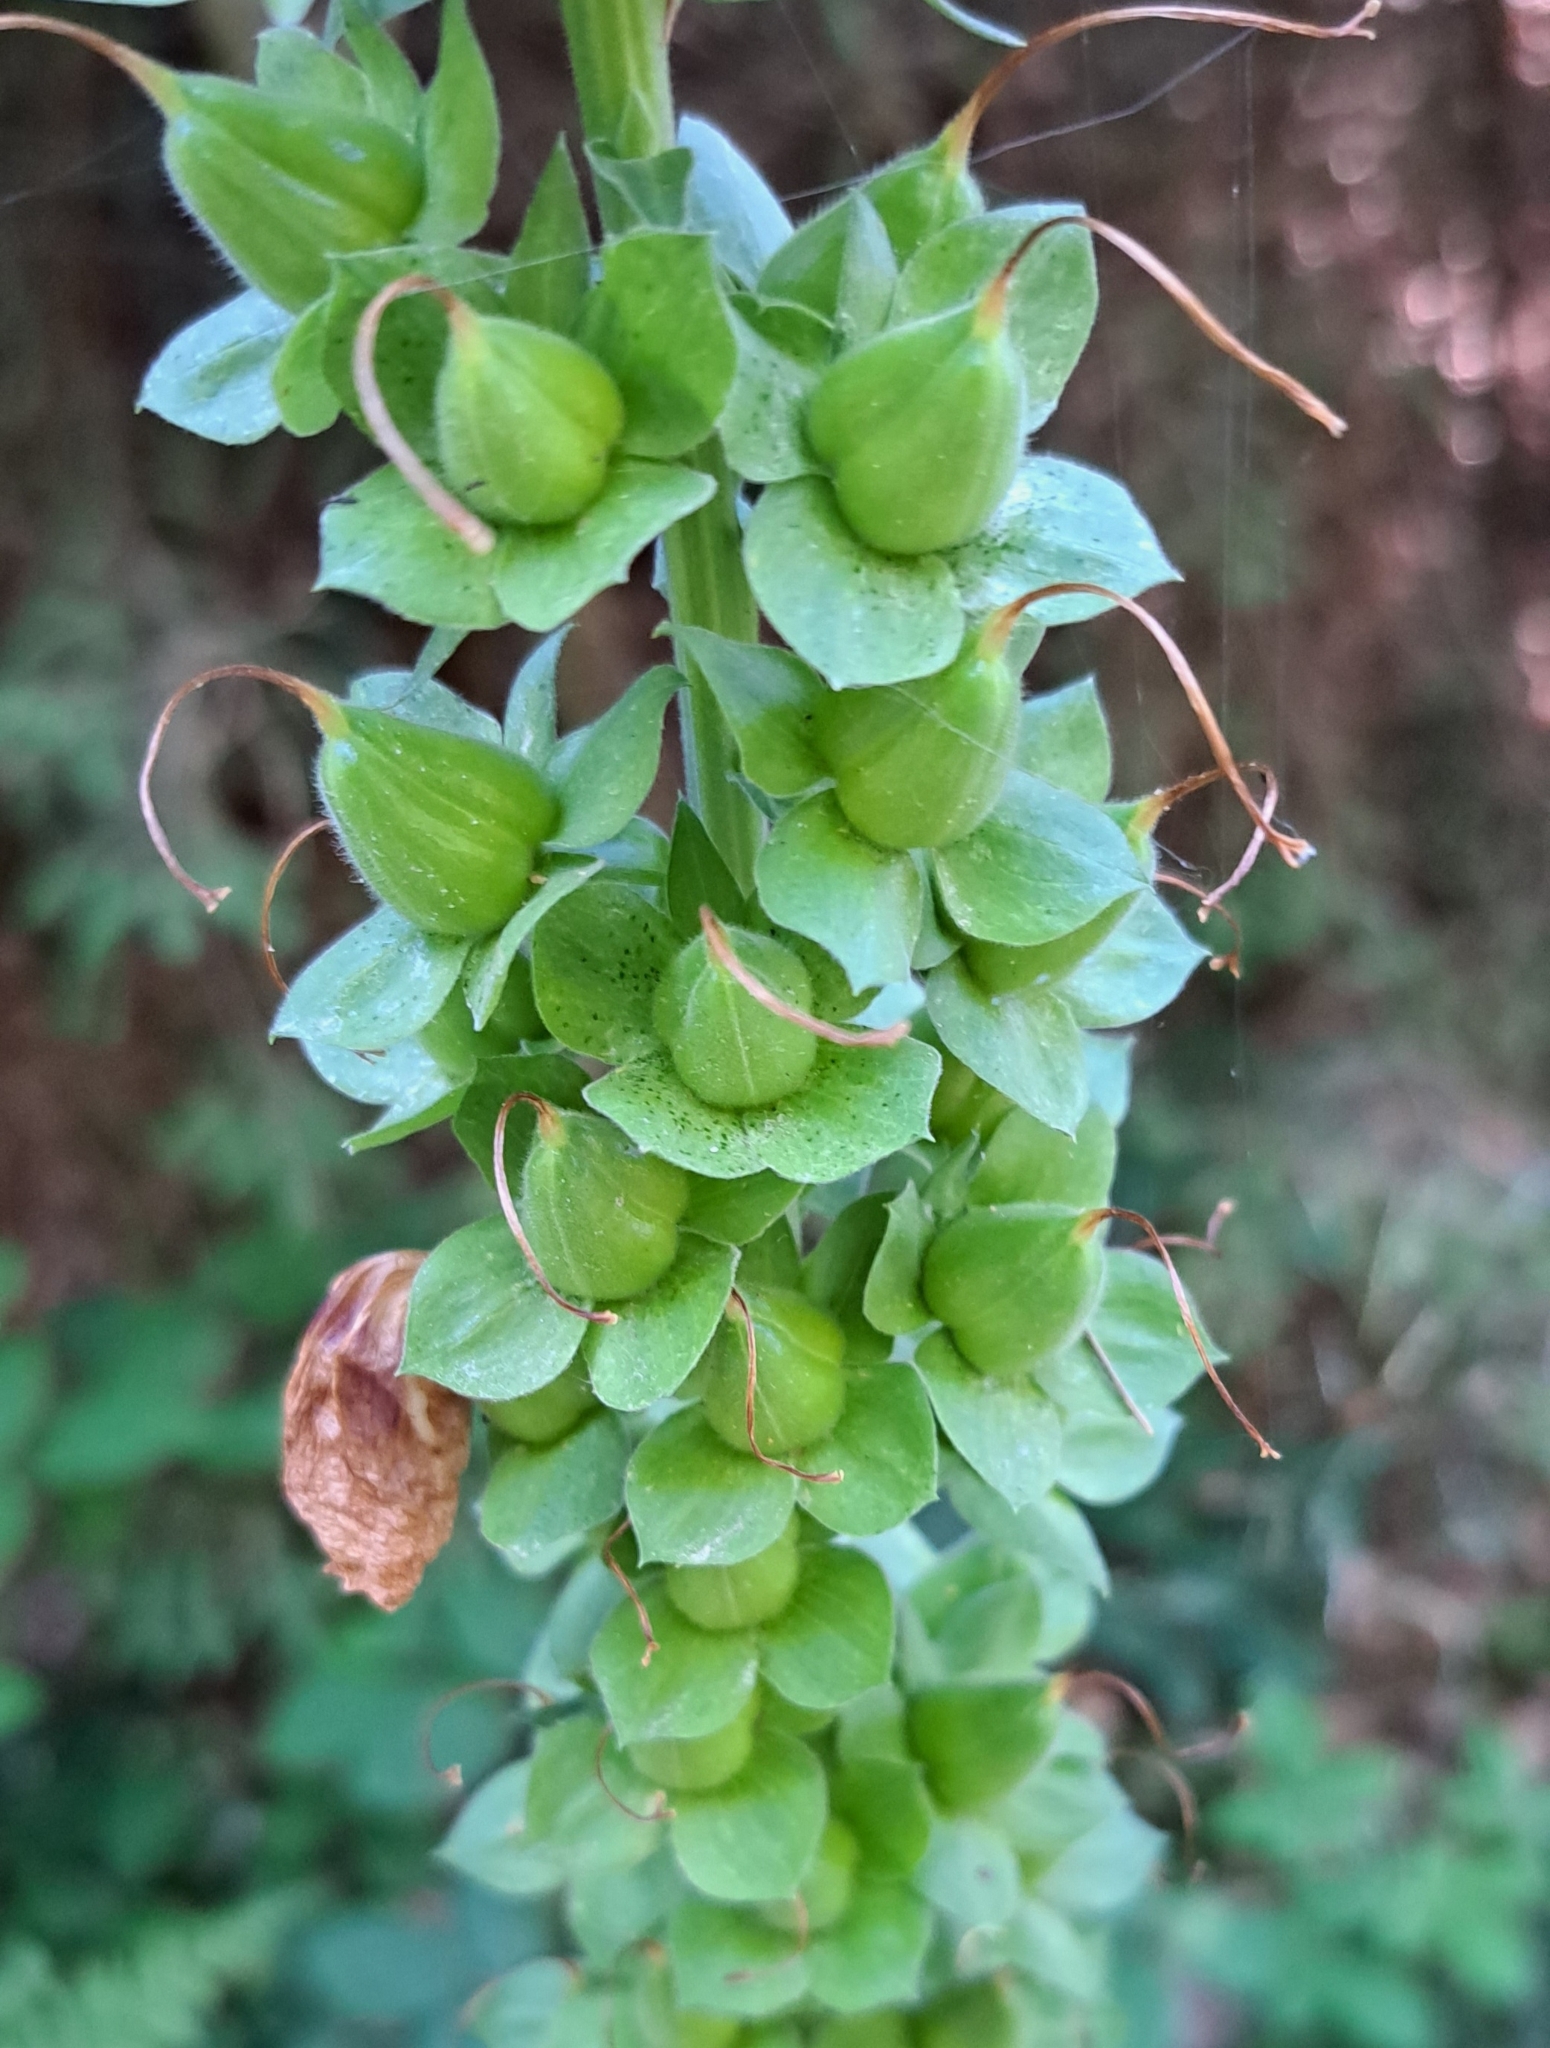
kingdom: Plantae
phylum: Tracheophyta
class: Magnoliopsida
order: Lamiales
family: Plantaginaceae
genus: Digitalis
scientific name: Digitalis purpurea
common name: Foxglove
